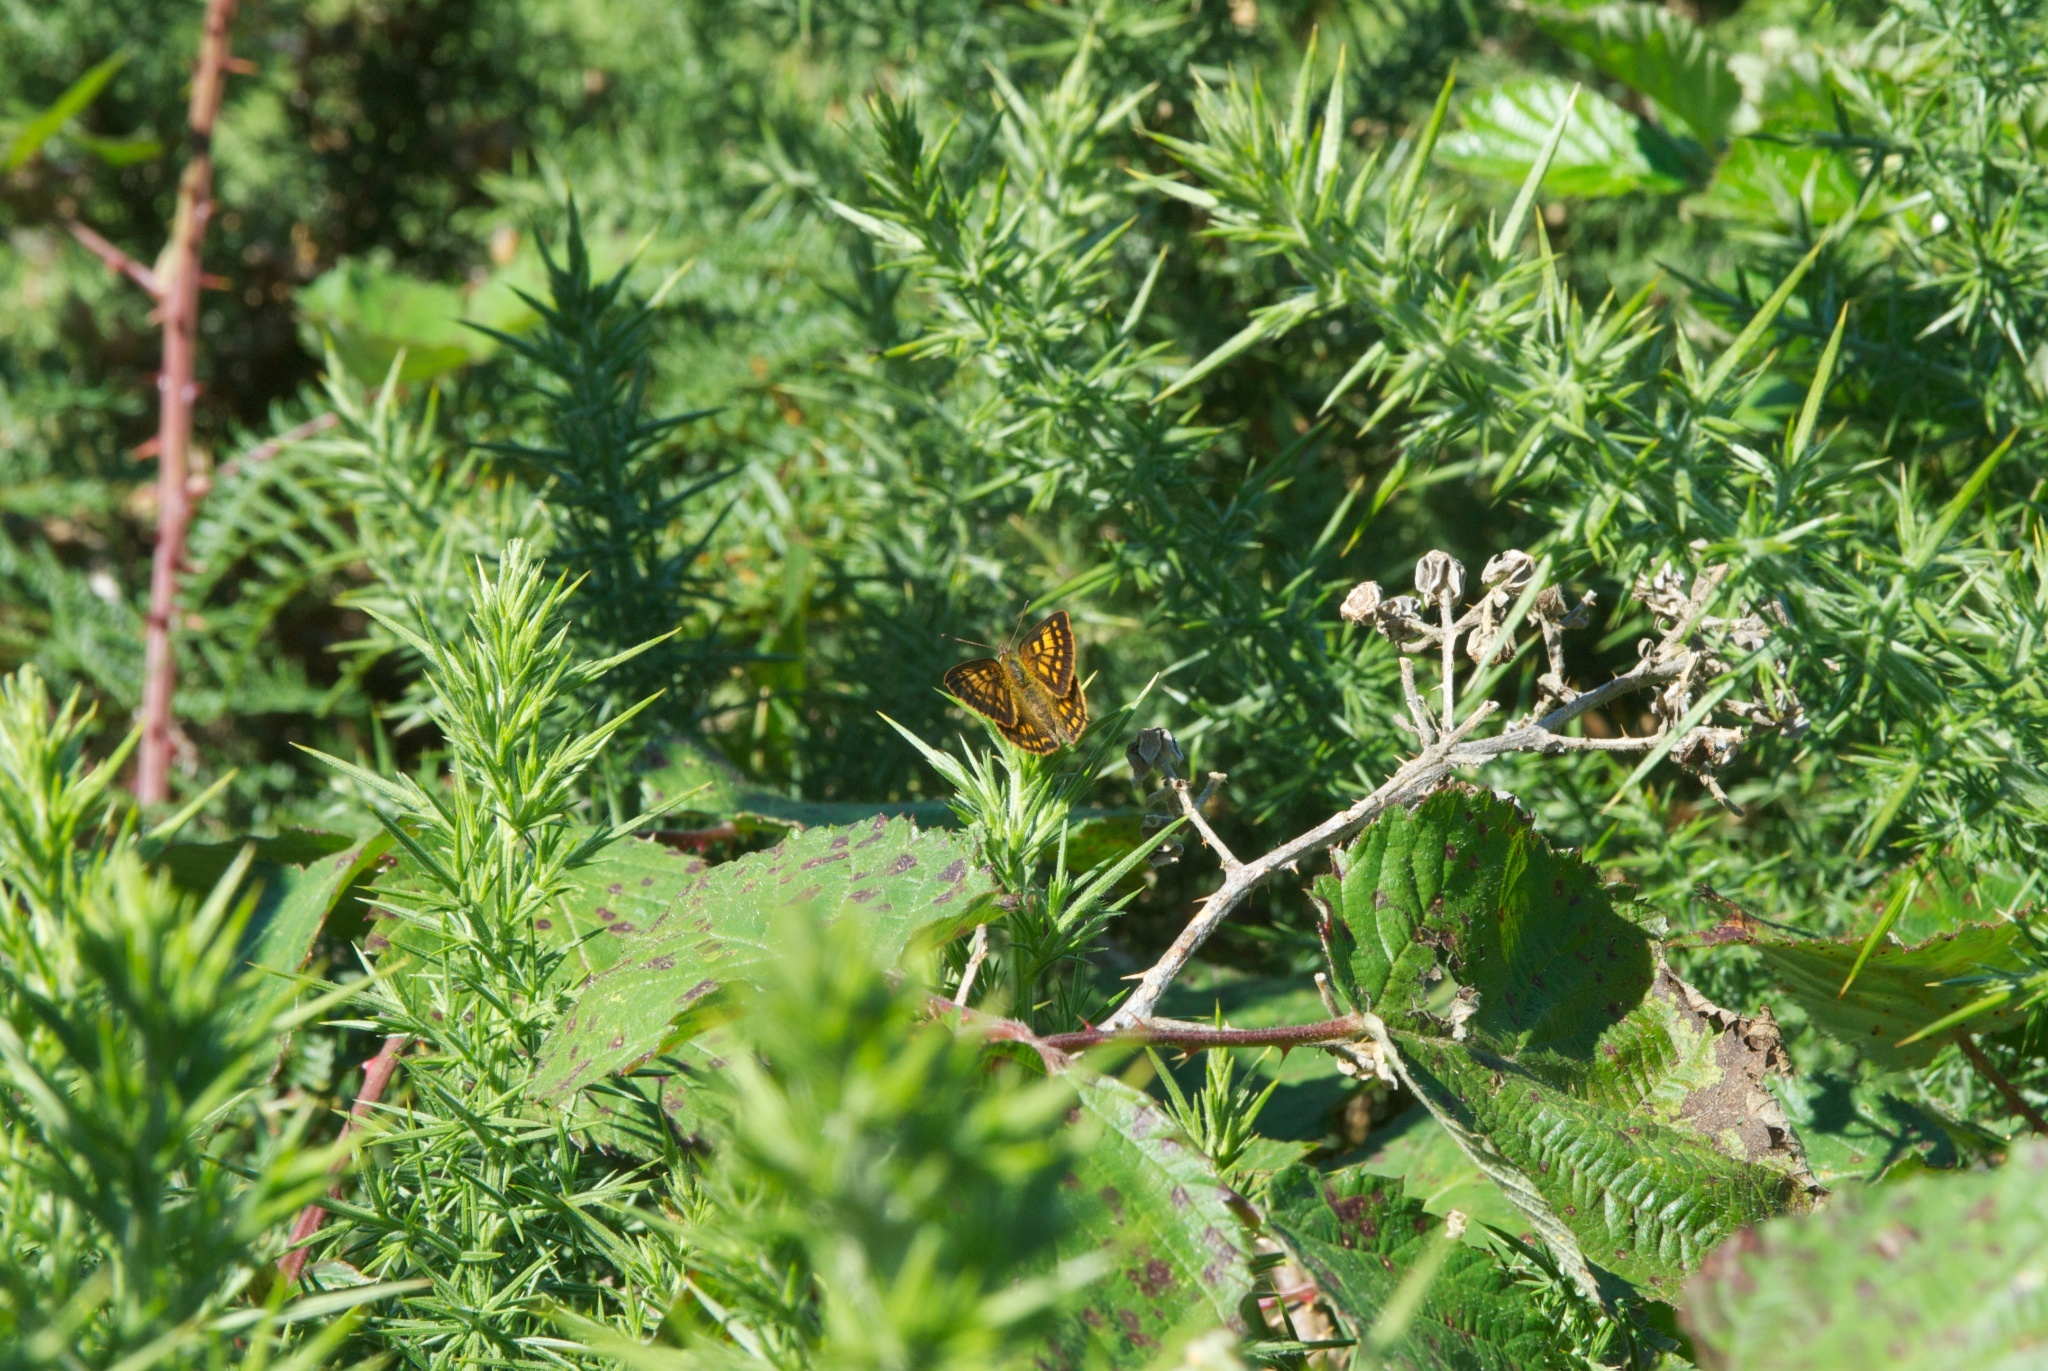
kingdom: Animalia
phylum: Arthropoda
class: Insecta
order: Lepidoptera
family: Lycaenidae
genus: Lycaena
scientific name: Lycaena feredayi
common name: Glade copper
